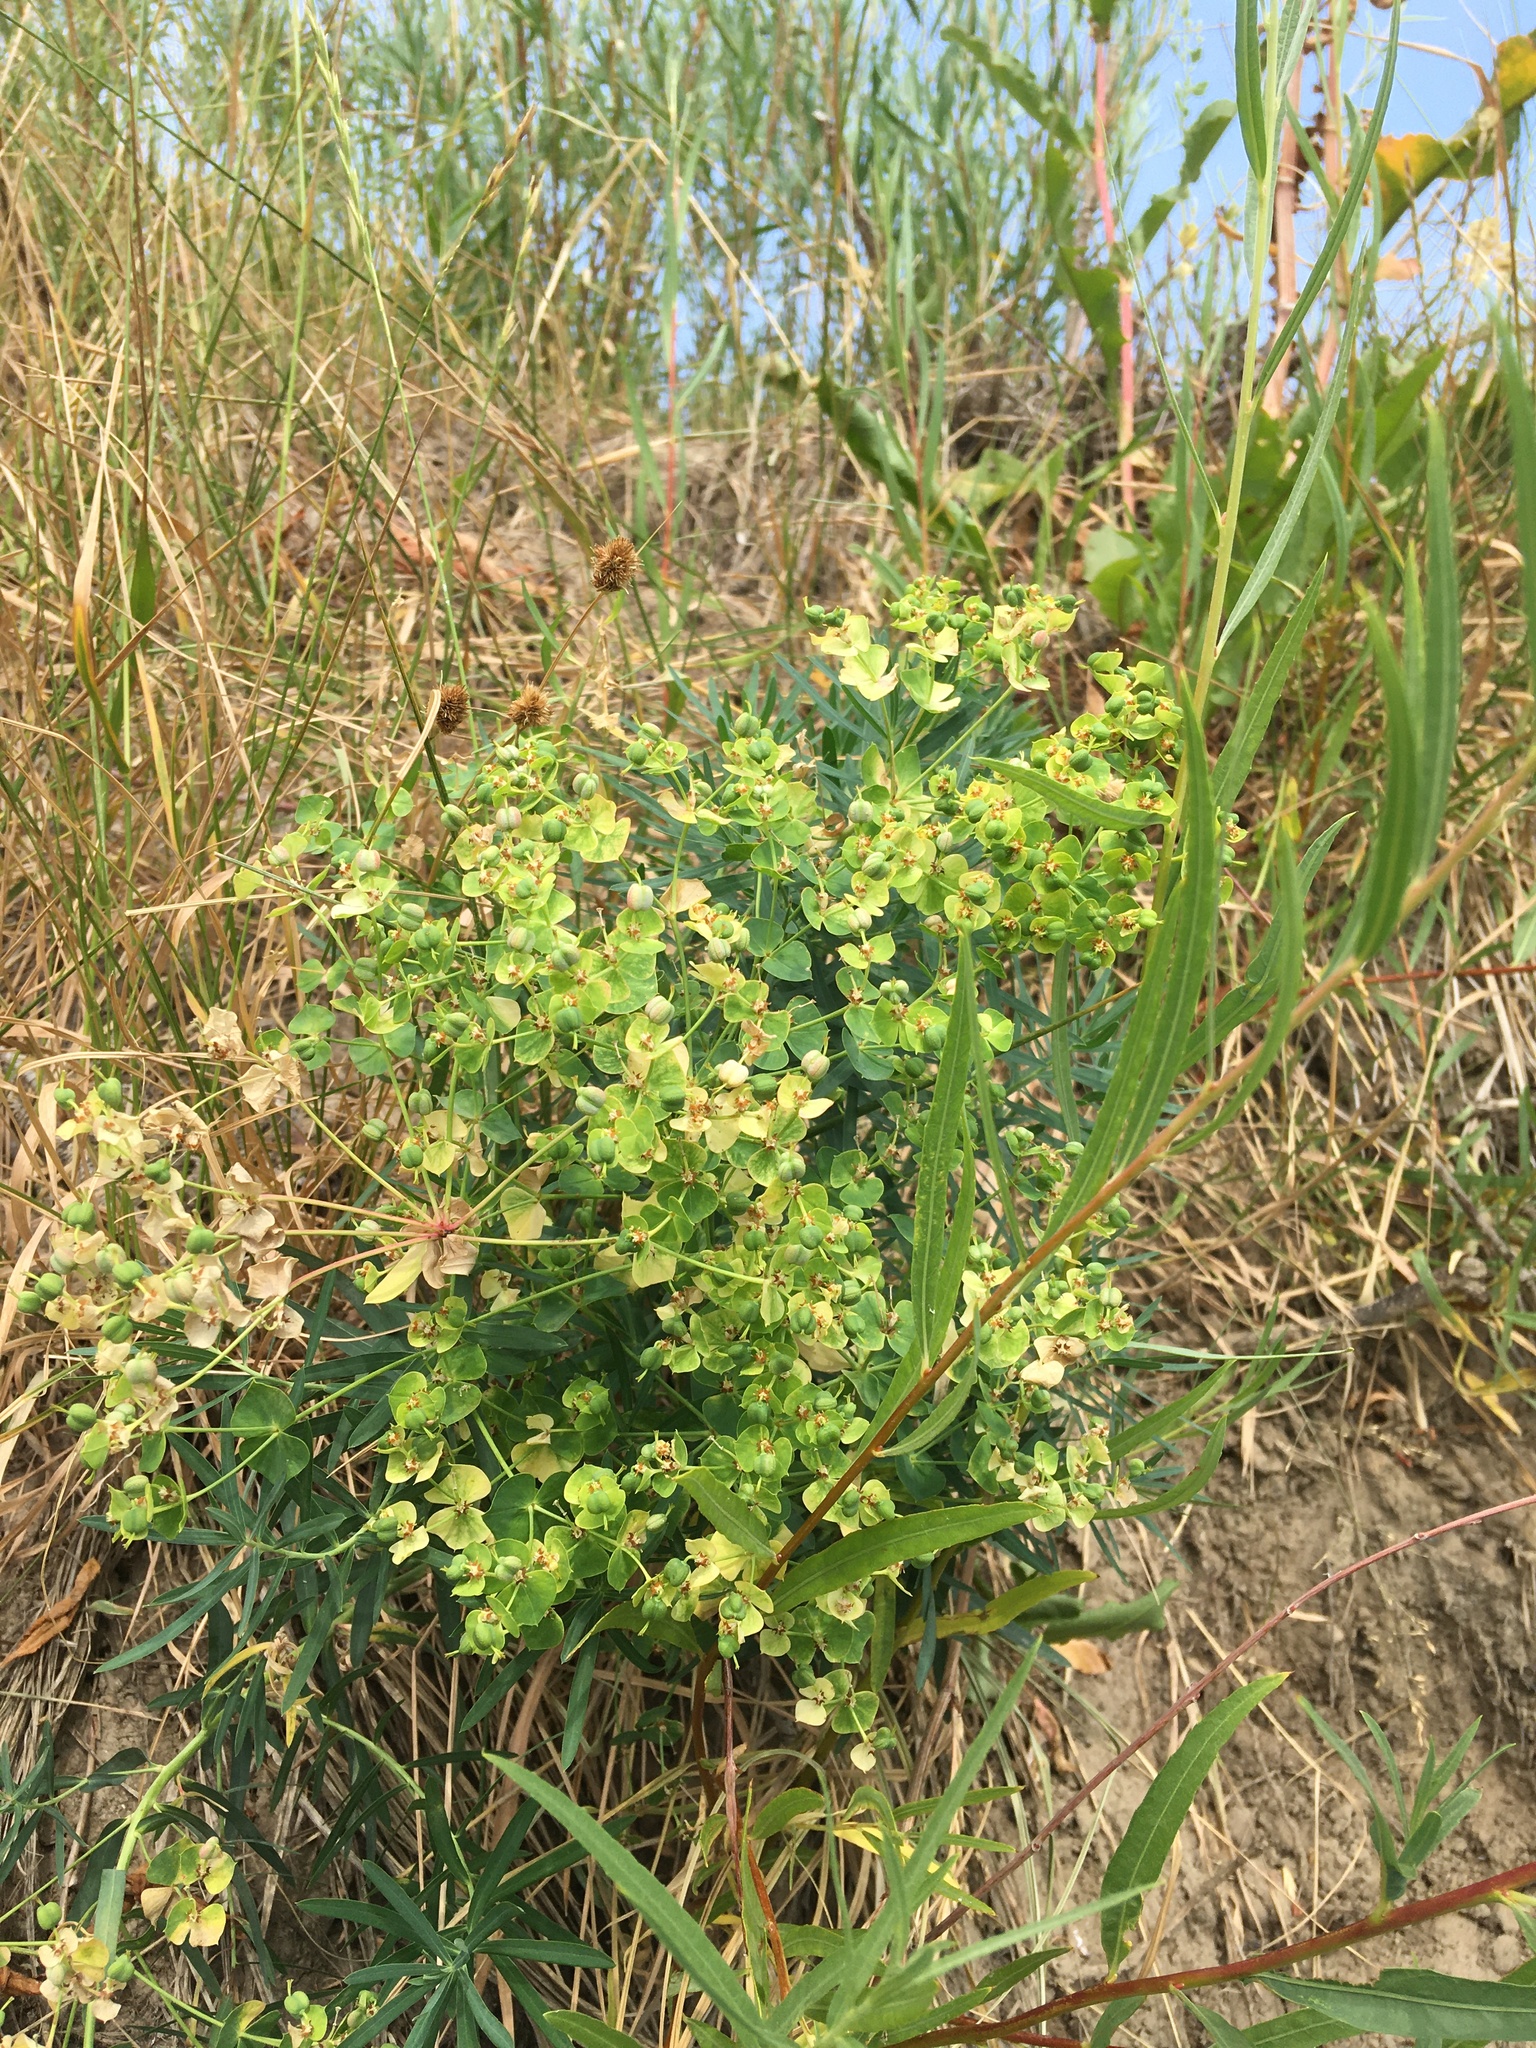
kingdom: Plantae
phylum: Tracheophyta
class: Magnoliopsida
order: Malpighiales
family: Euphorbiaceae
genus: Euphorbia
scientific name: Euphorbia virgata
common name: Leafy spurge
